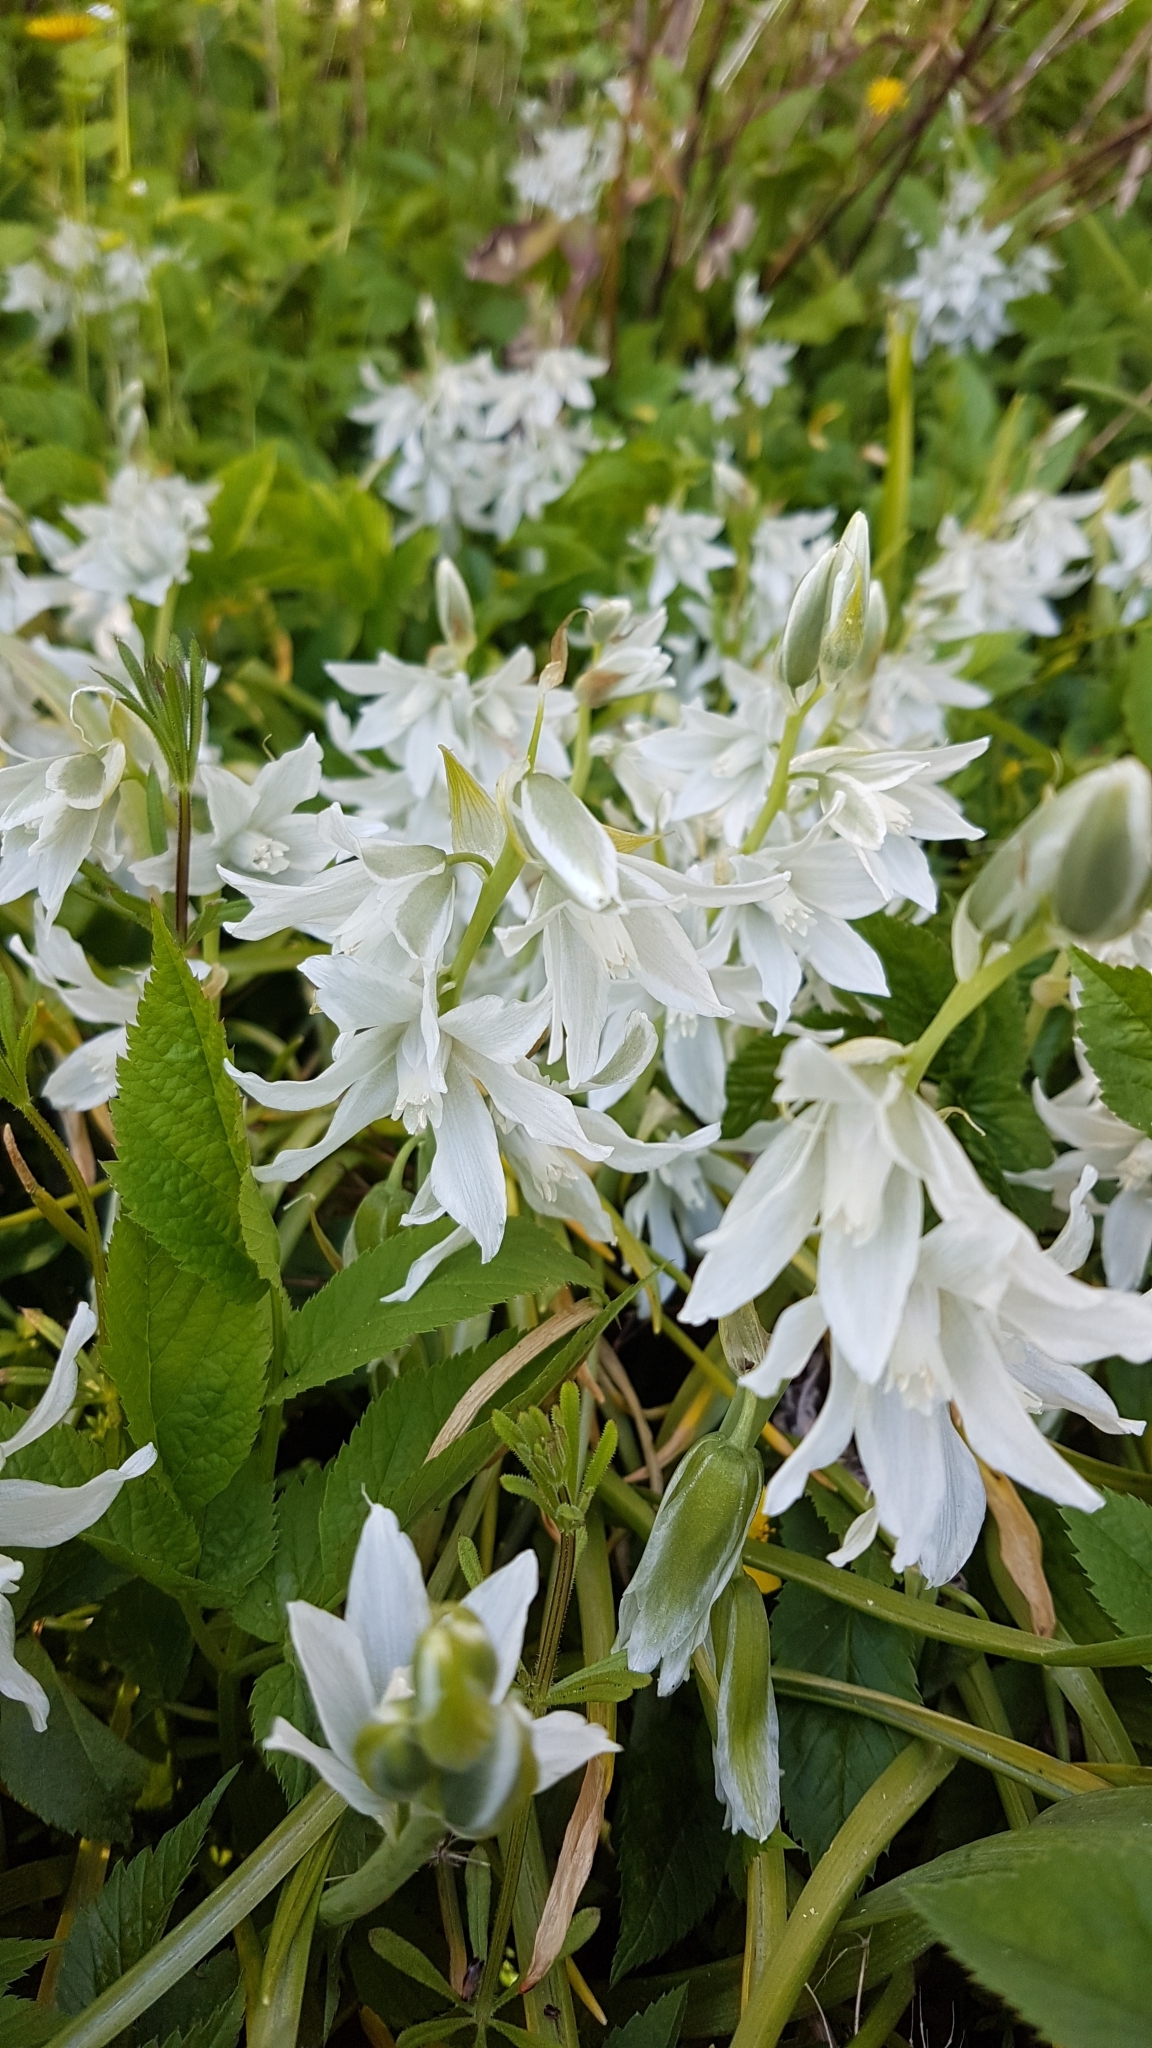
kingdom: Plantae
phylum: Tracheophyta
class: Liliopsida
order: Asparagales
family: Asparagaceae
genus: Ornithogalum
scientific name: Ornithogalum nutans
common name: Drooping star-of-bethlehem
